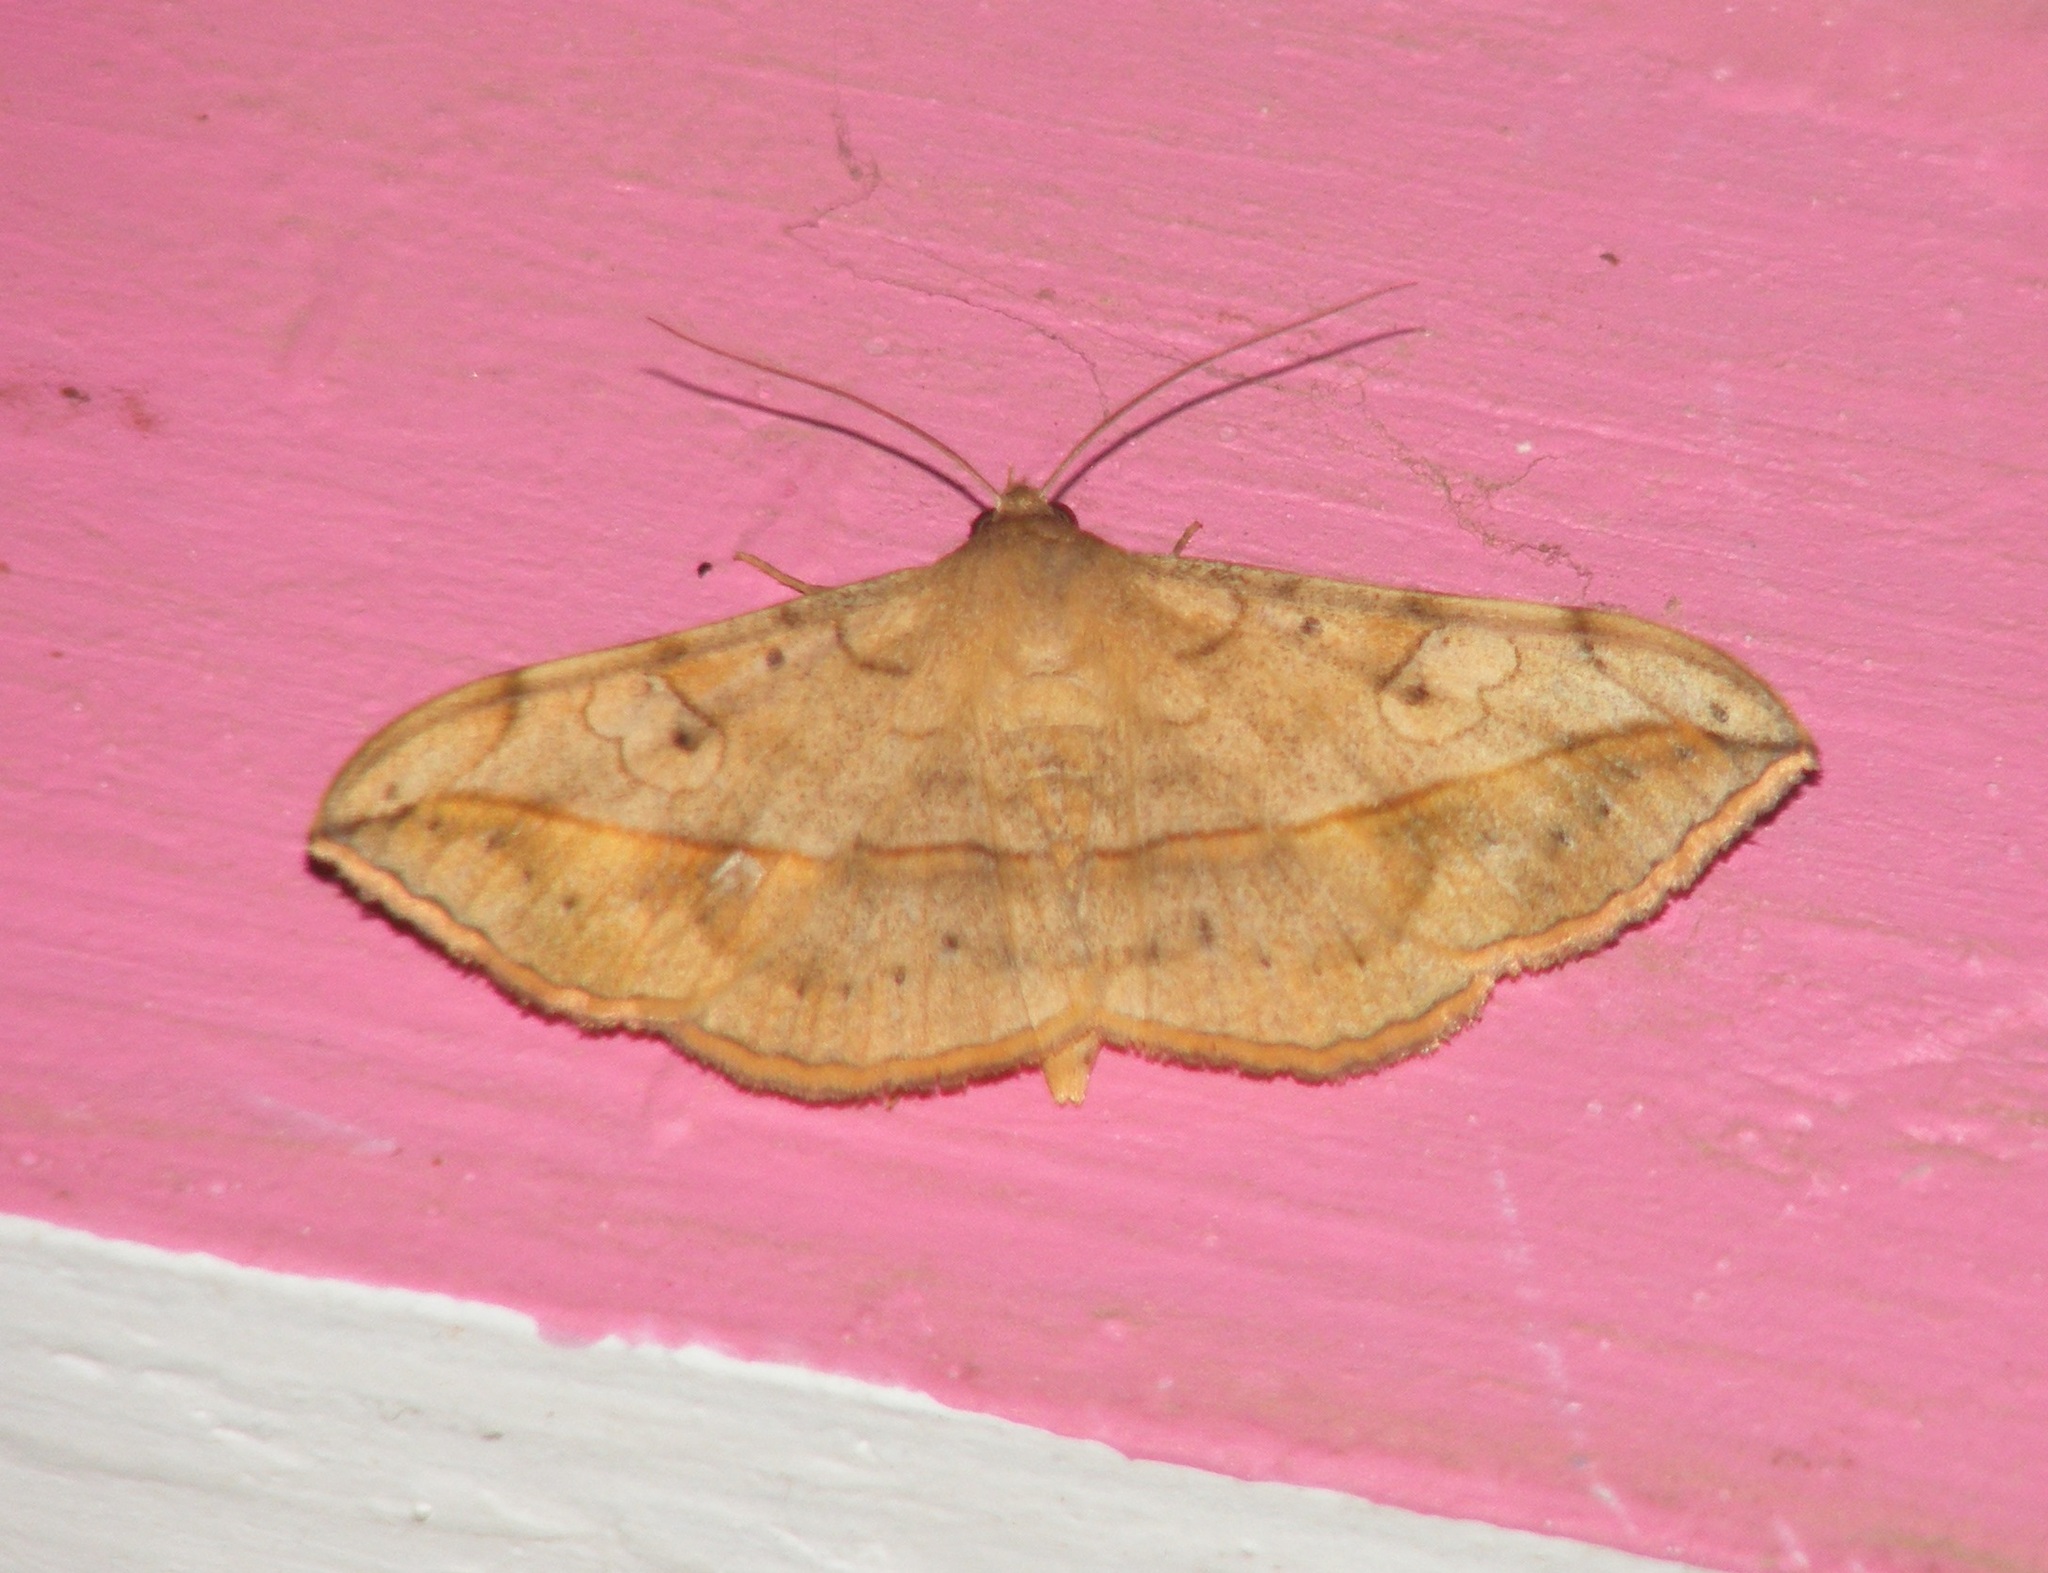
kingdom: Animalia
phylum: Arthropoda
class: Insecta
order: Lepidoptera
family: Erebidae
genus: Anticarsia
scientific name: Anticarsia irrorata
